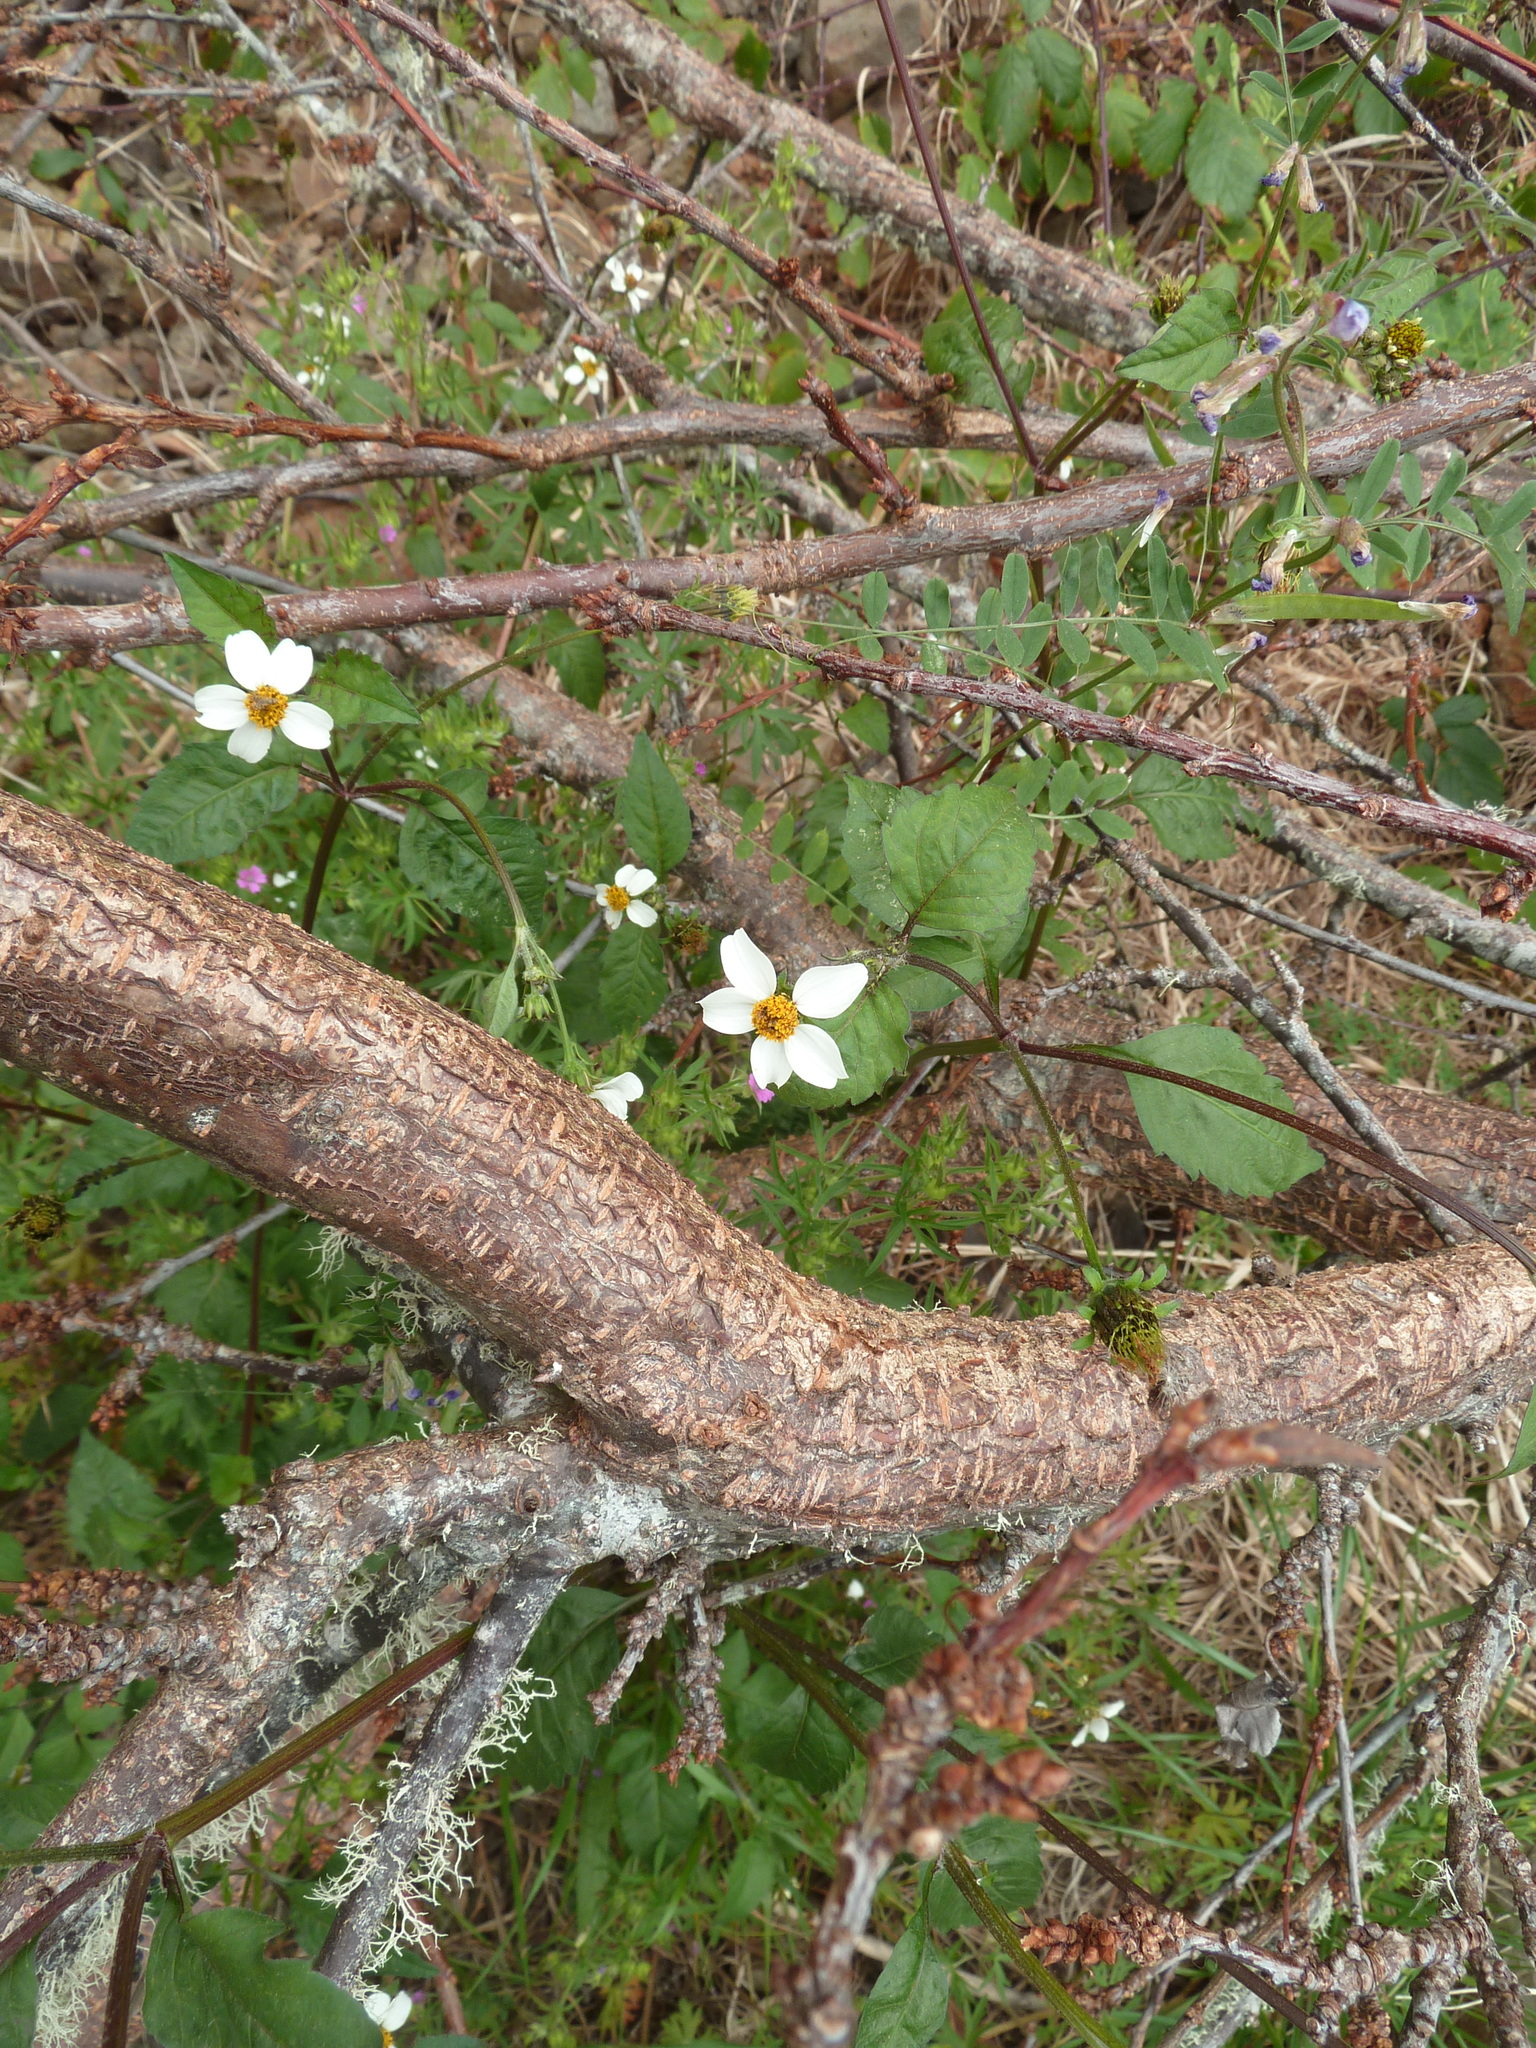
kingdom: Plantae
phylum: Tracheophyta
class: Magnoliopsida
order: Asterales
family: Asteraceae
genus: Bidens
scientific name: Bidens pilosa
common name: Black-jack
